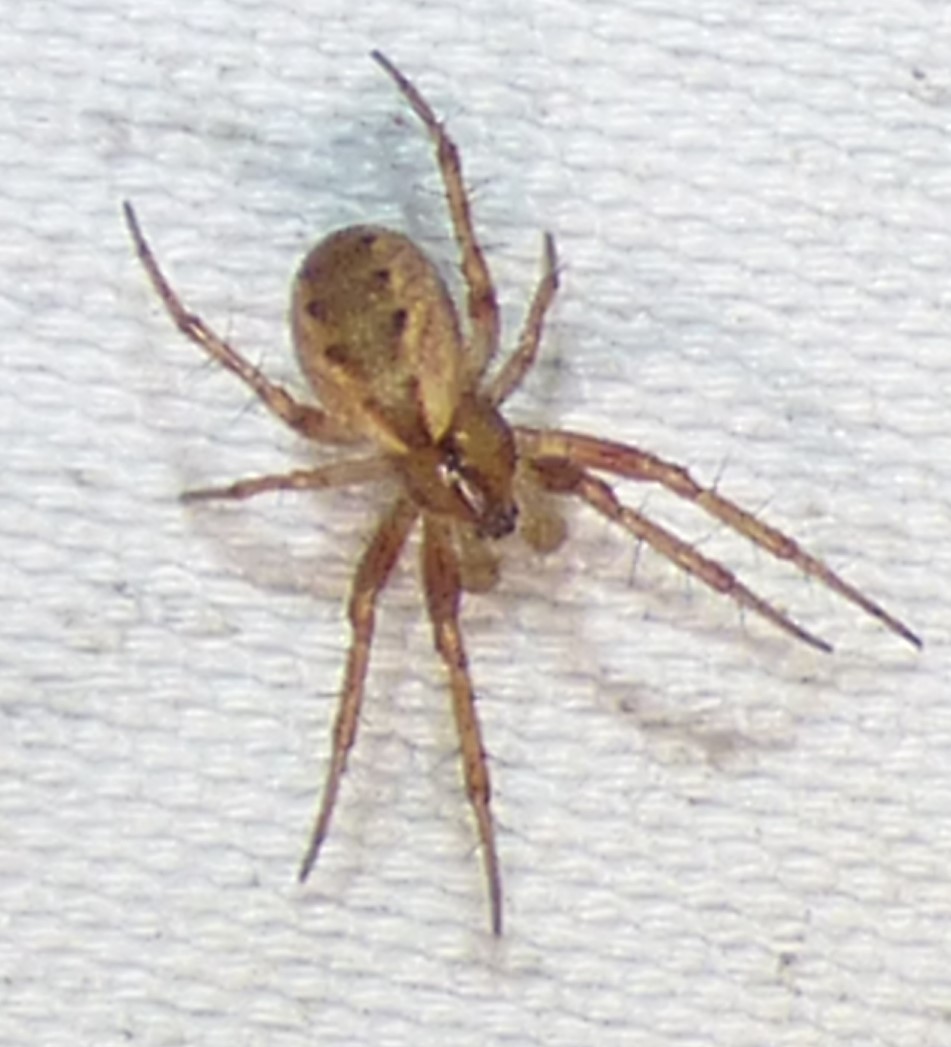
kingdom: Animalia
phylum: Arthropoda
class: Arachnida
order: Araneae
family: Araneidae
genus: Mangora
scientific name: Mangora placida
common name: Tuft-legged orbweaver
